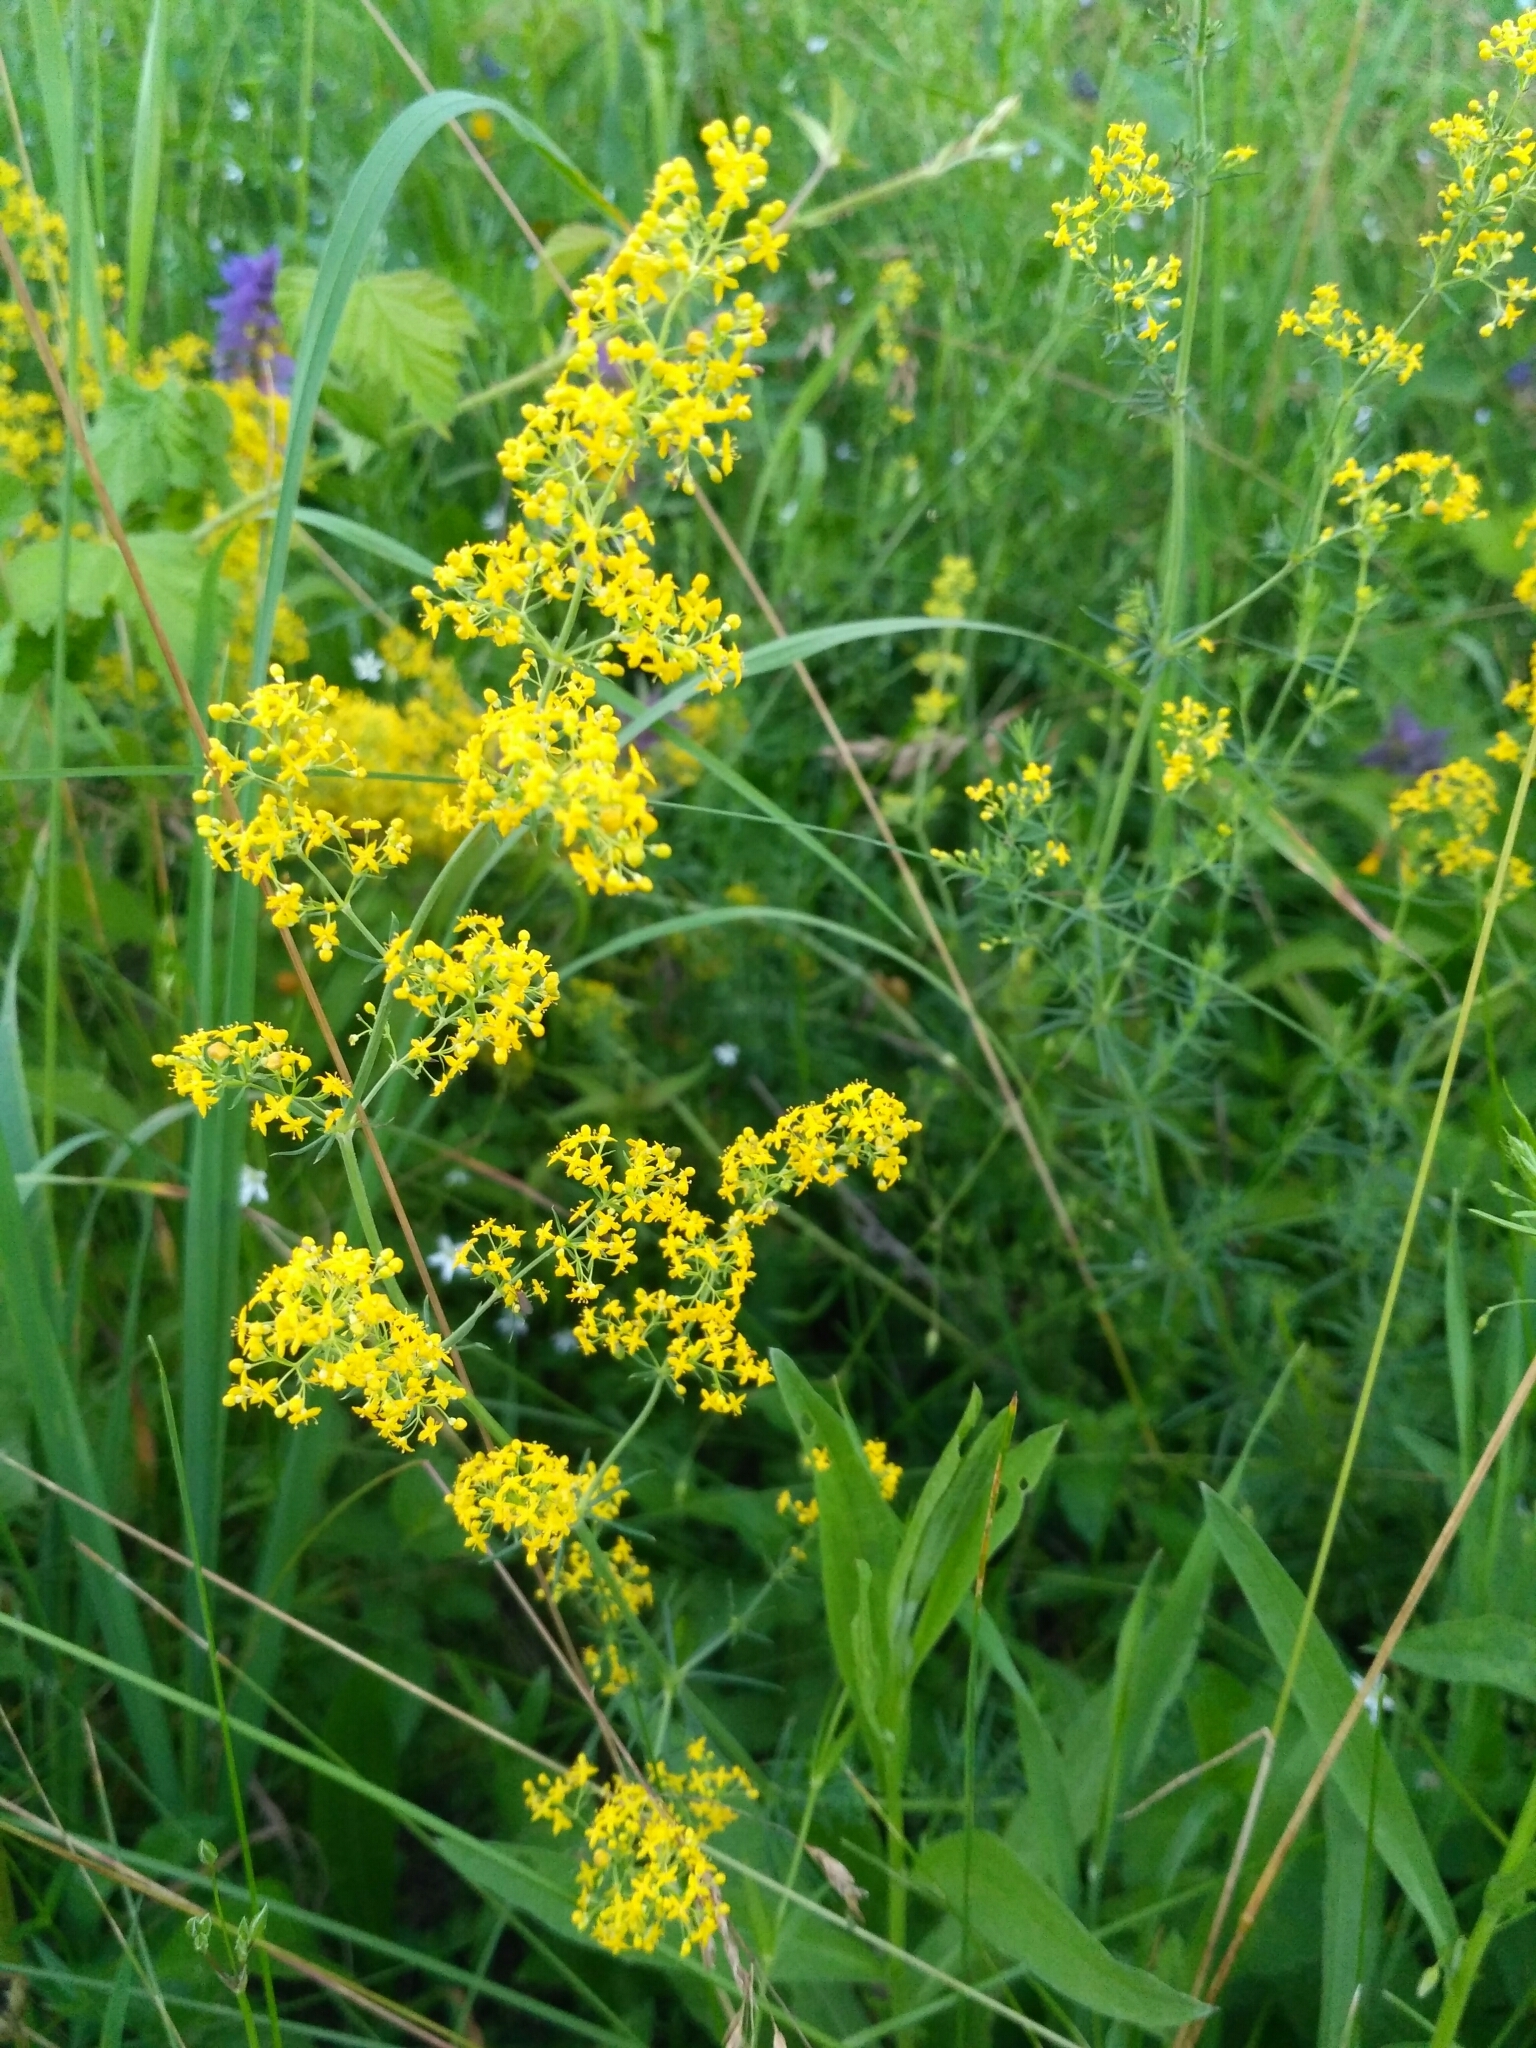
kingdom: Plantae
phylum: Tracheophyta
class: Magnoliopsida
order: Gentianales
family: Rubiaceae
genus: Galium
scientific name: Galium verum
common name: Lady's bedstraw
